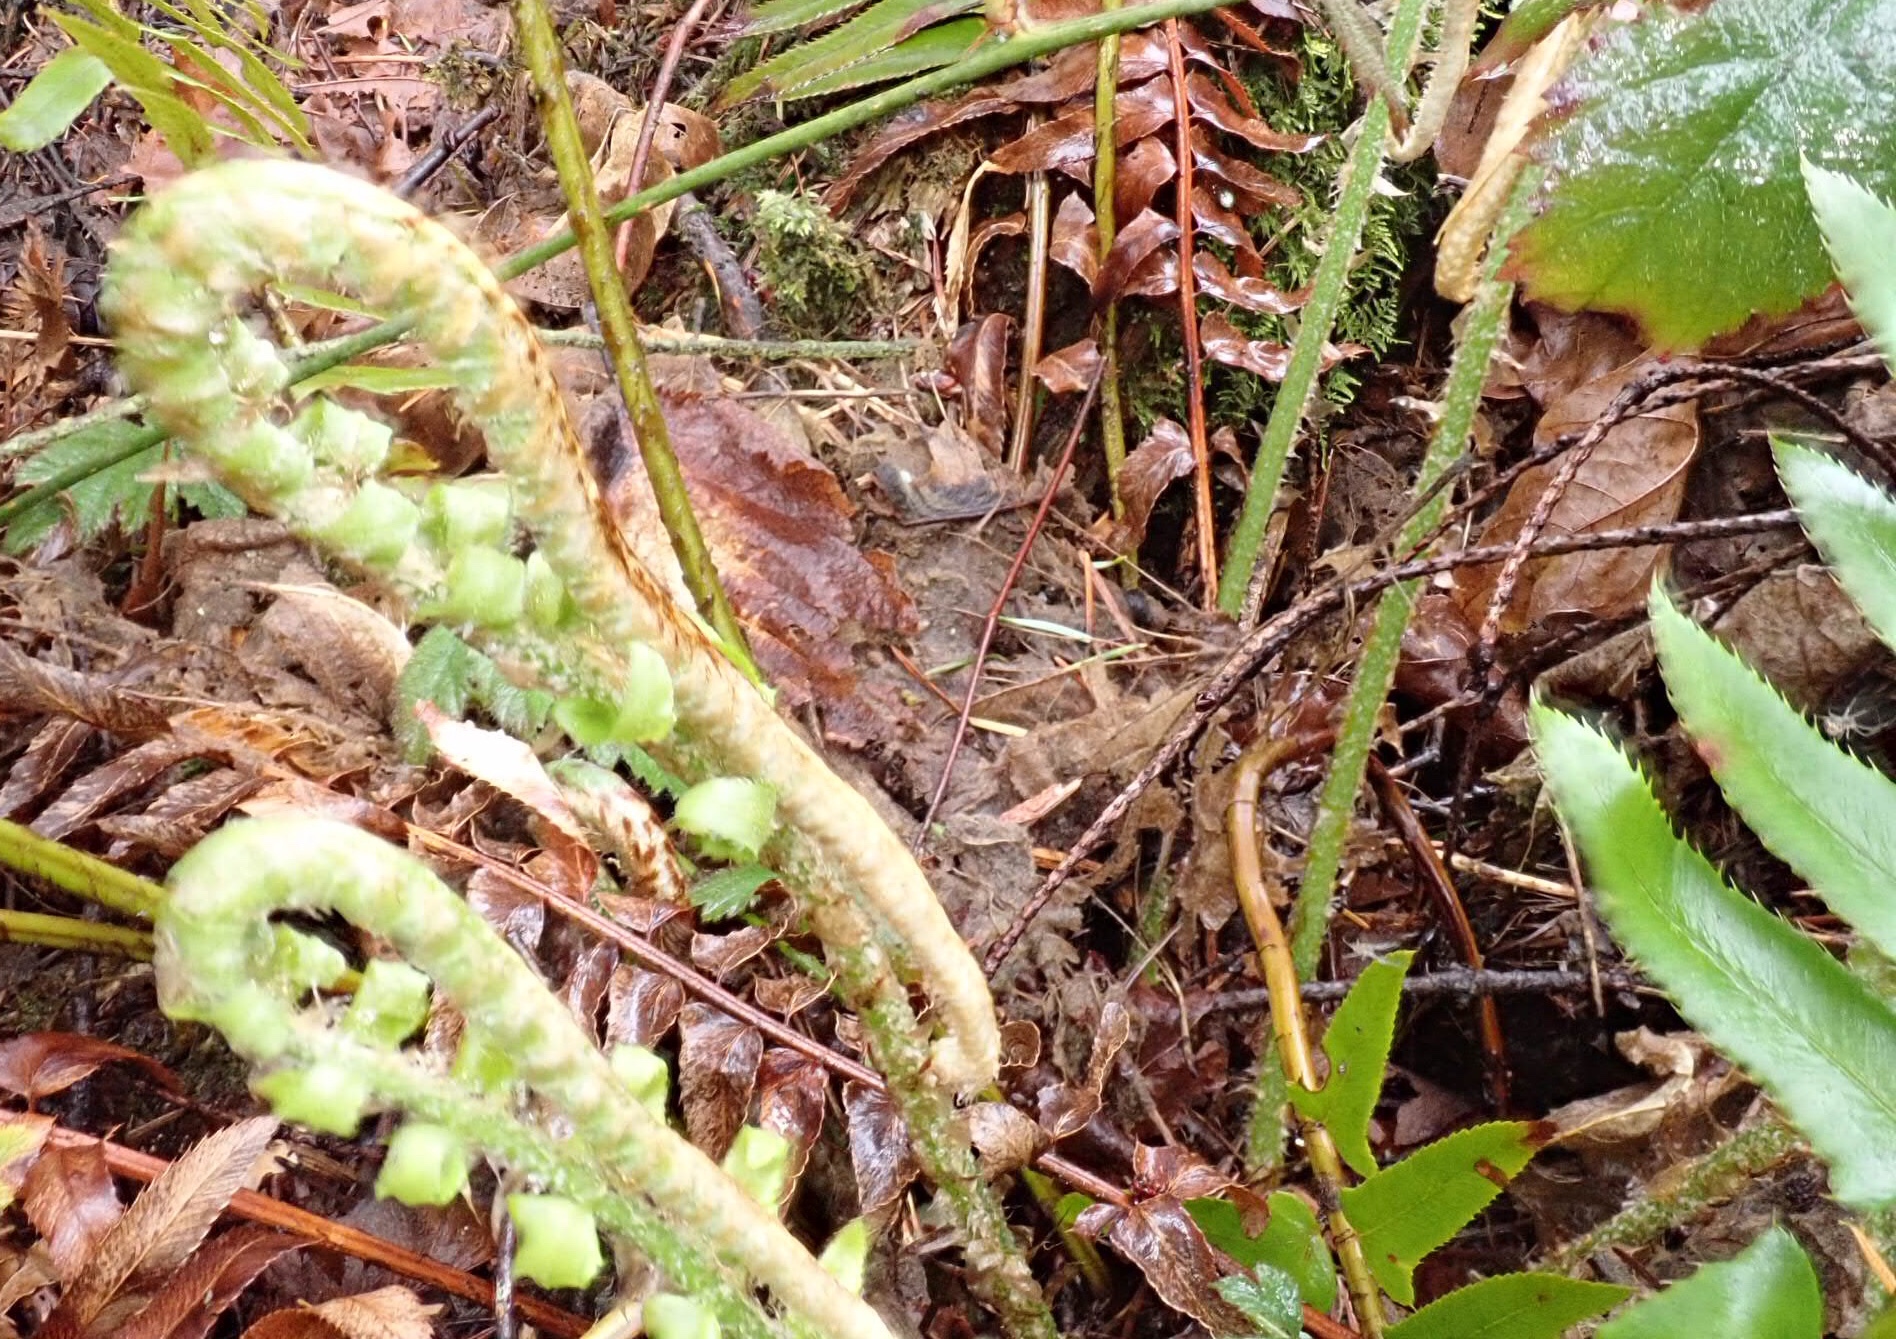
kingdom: Plantae
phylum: Tracheophyta
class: Polypodiopsida
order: Polypodiales
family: Dryopteridaceae
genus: Polystichum
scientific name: Polystichum munitum
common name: Western sword-fern
